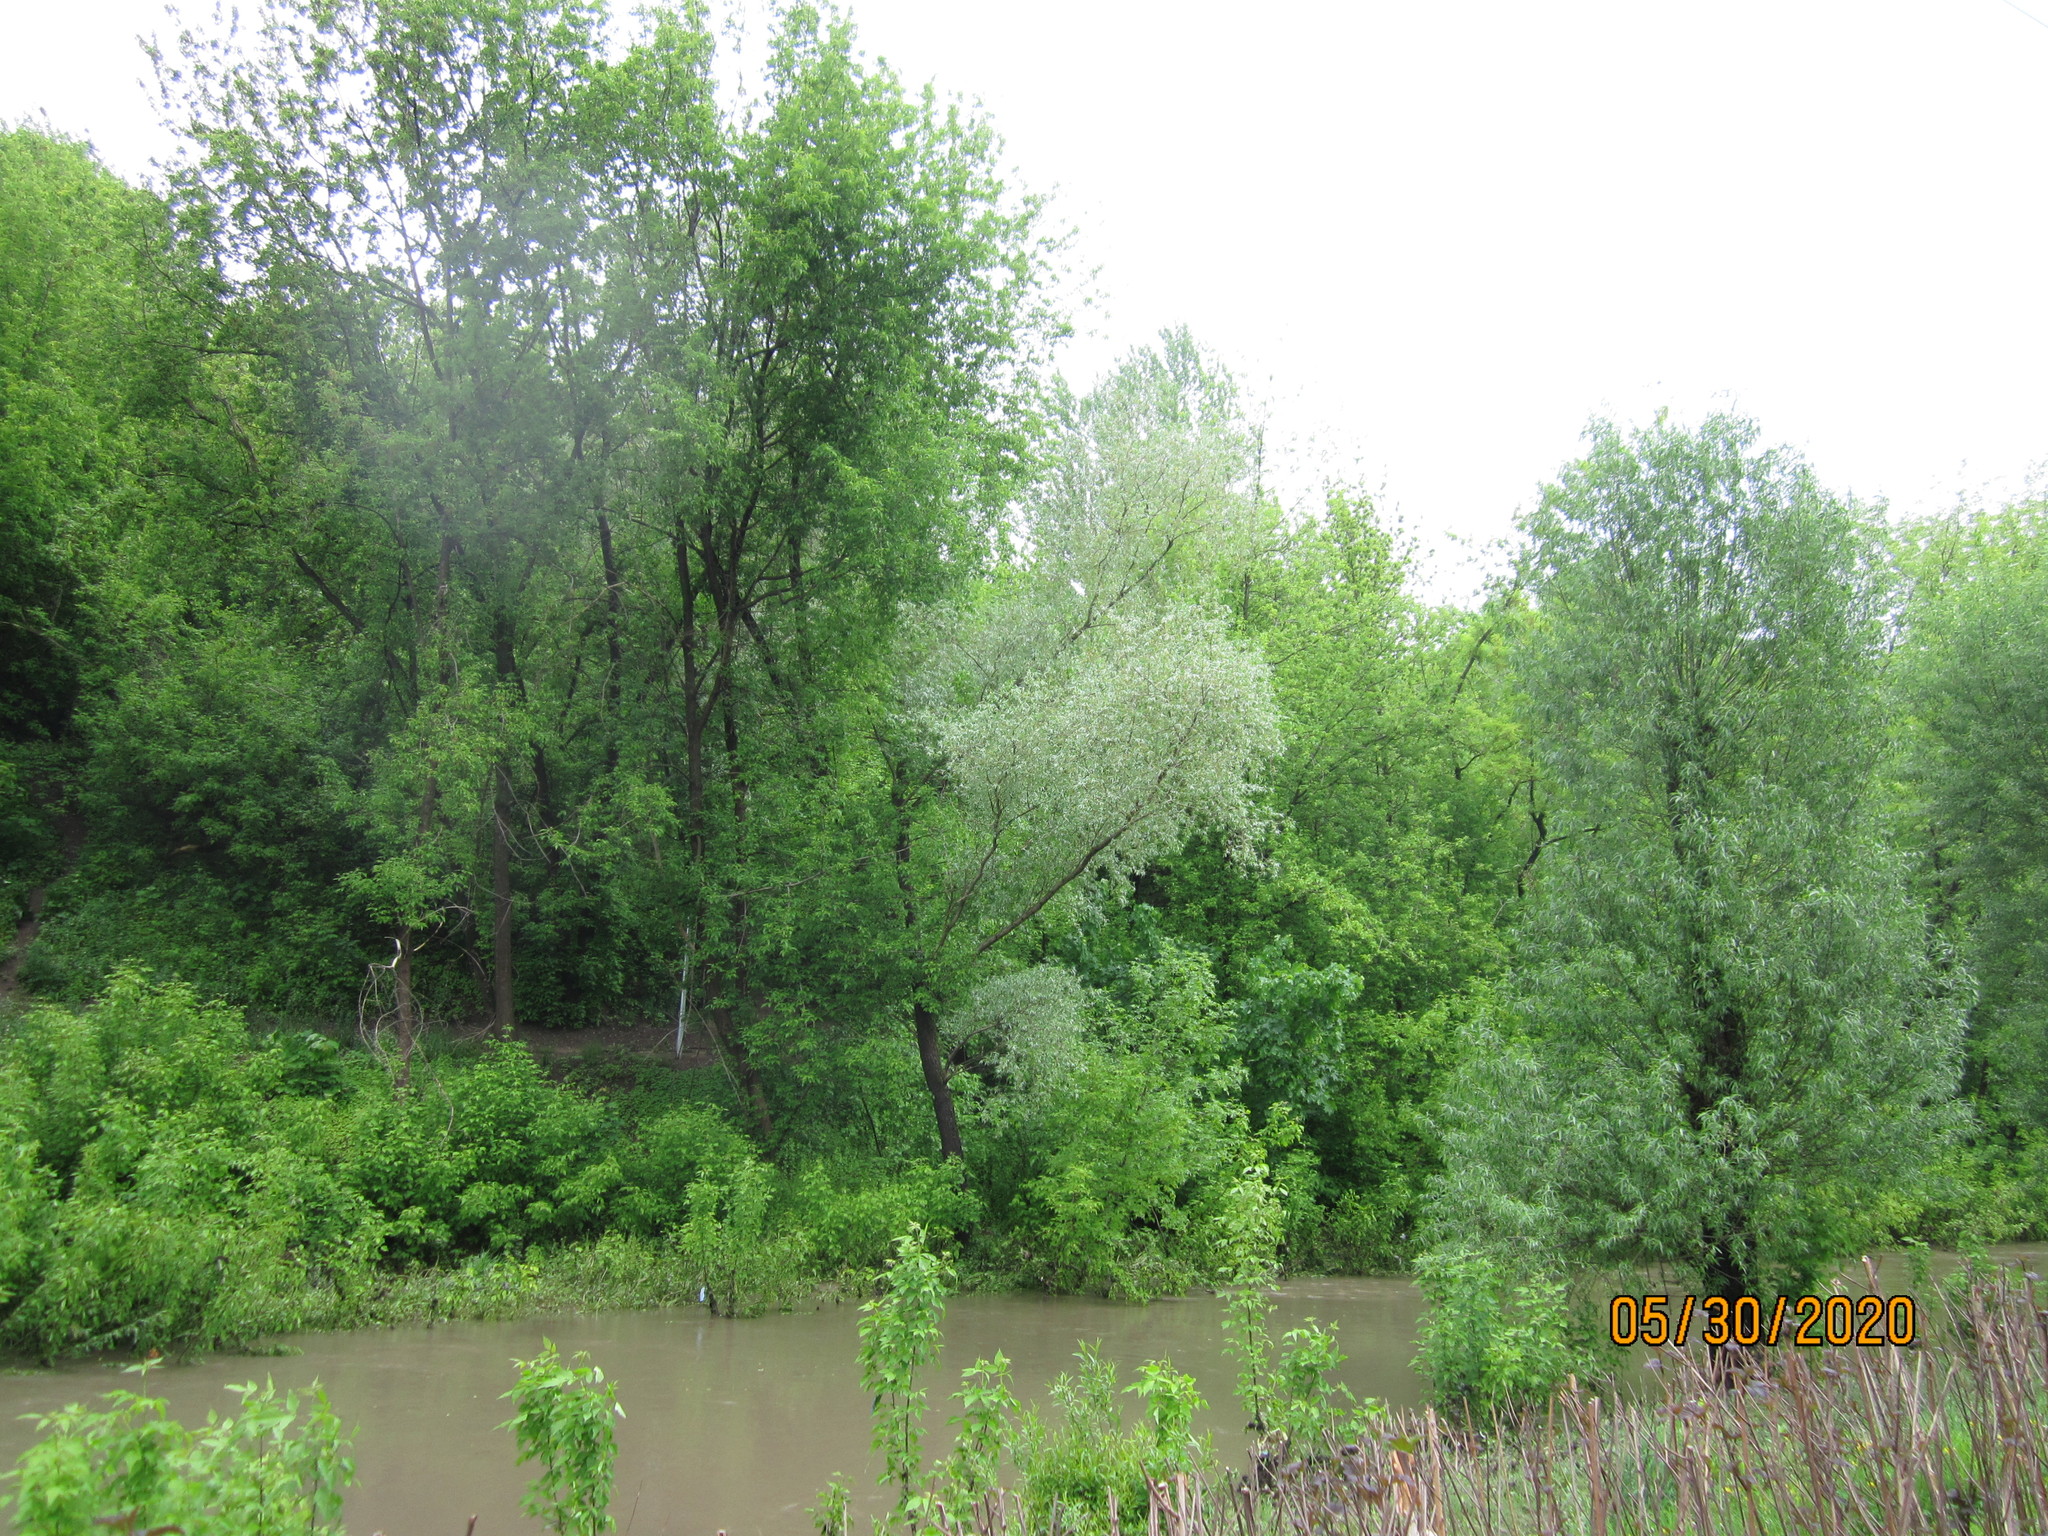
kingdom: Plantae
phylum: Tracheophyta
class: Magnoliopsida
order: Malpighiales
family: Salicaceae
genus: Salix
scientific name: Salix alba
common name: White willow
